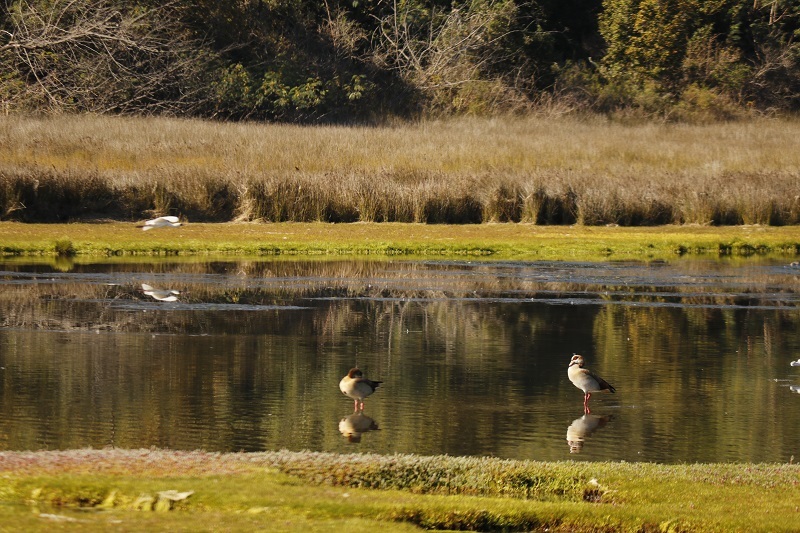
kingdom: Animalia
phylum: Chordata
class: Aves
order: Anseriformes
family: Anatidae
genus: Alopochen
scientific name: Alopochen aegyptiaca
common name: Egyptian goose
